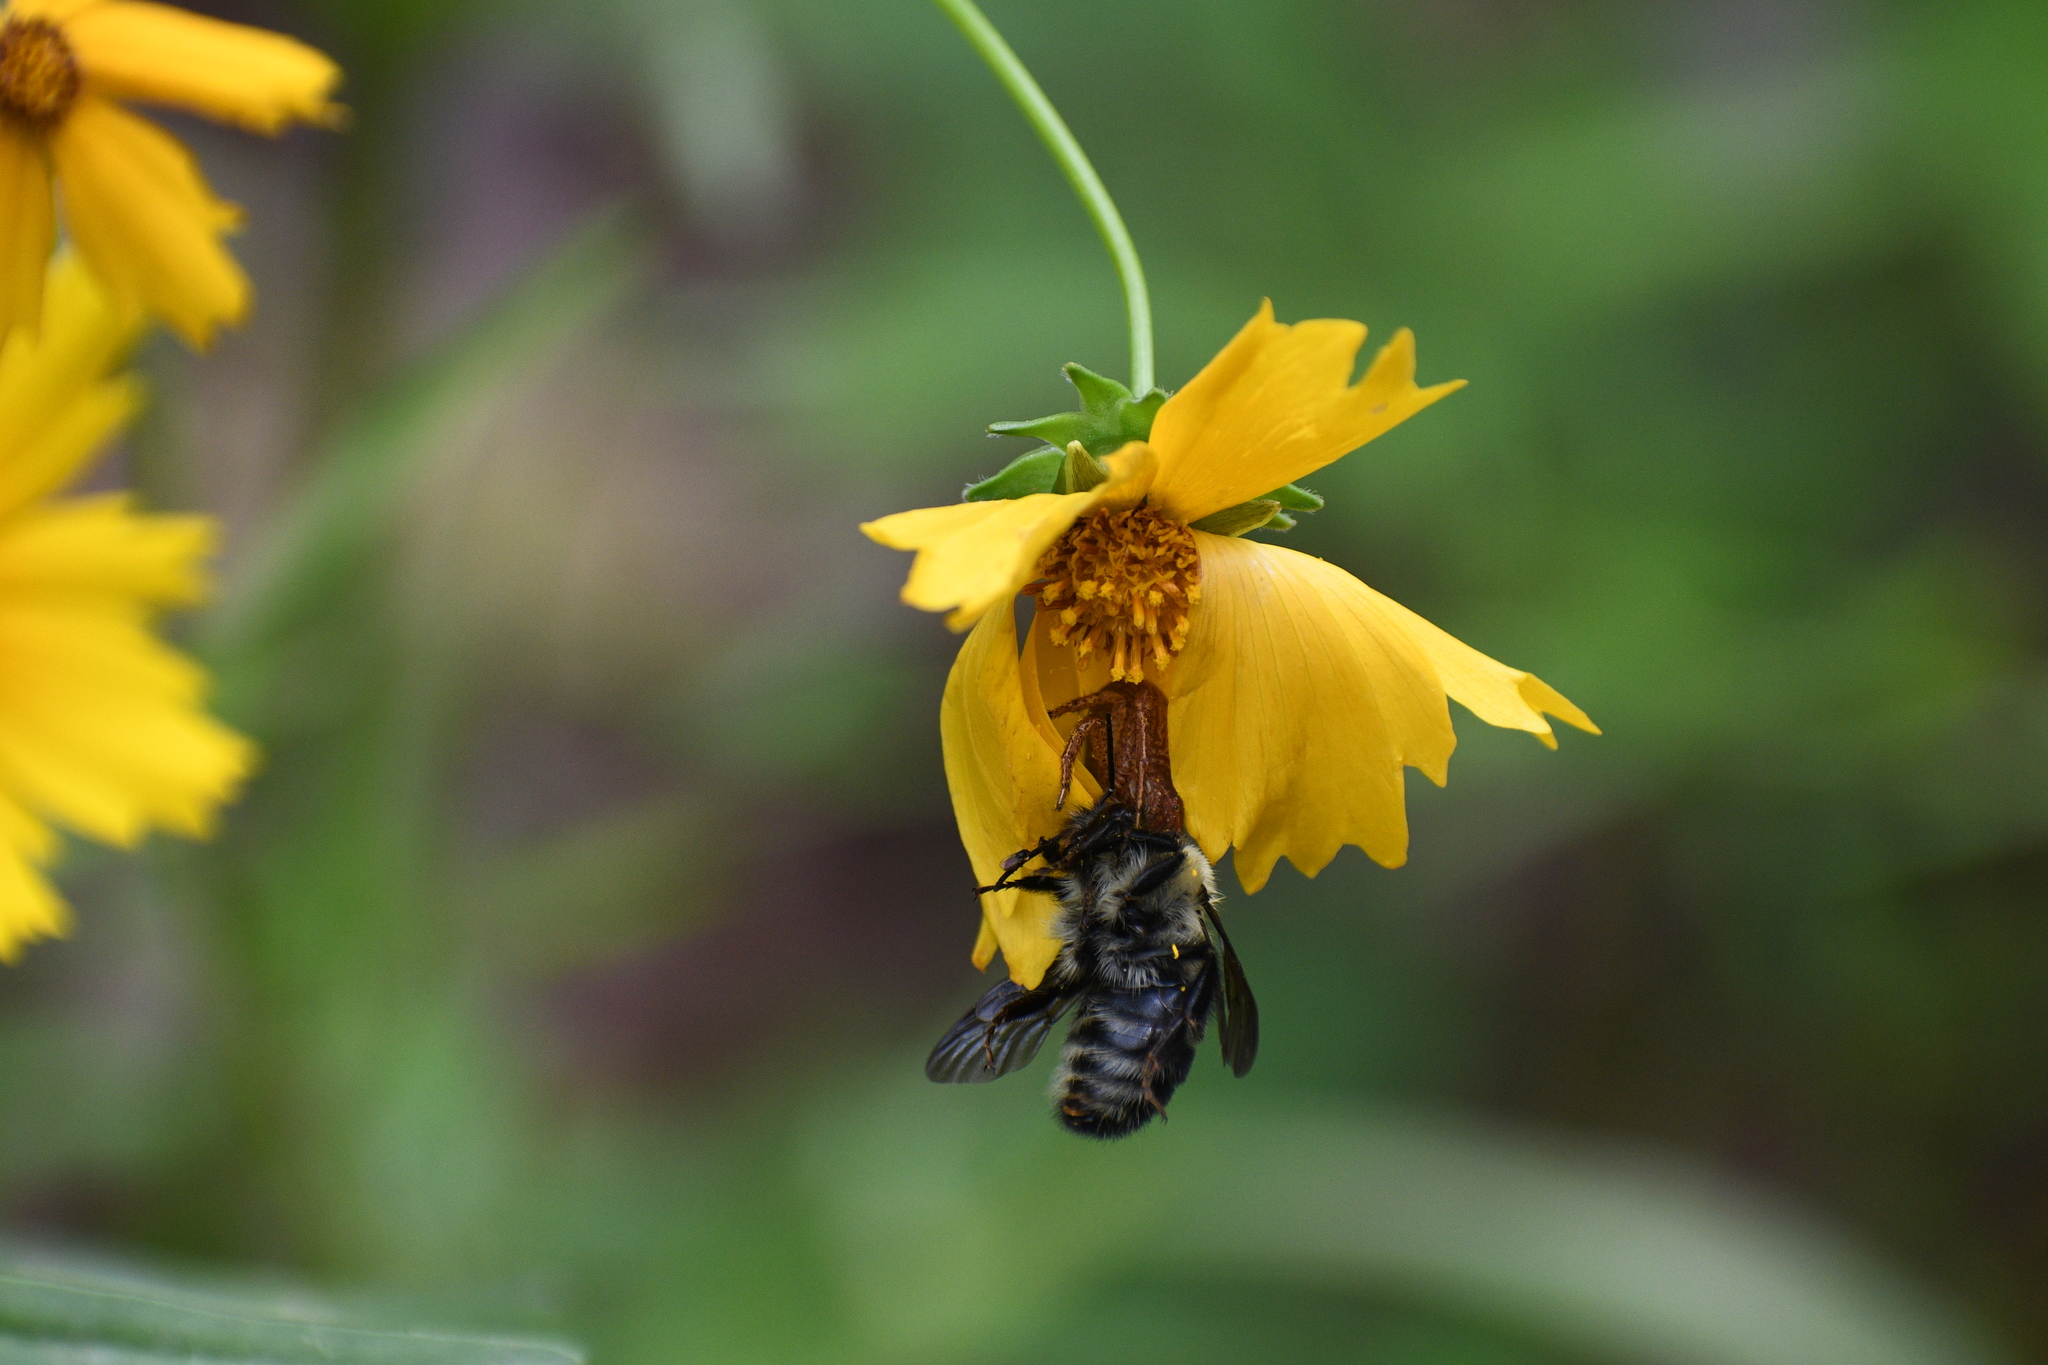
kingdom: Animalia
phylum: Arthropoda
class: Insecta
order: Hymenoptera
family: Apidae
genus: Bombus
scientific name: Bombus bimaculatus
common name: Two-spotted bumble bee
